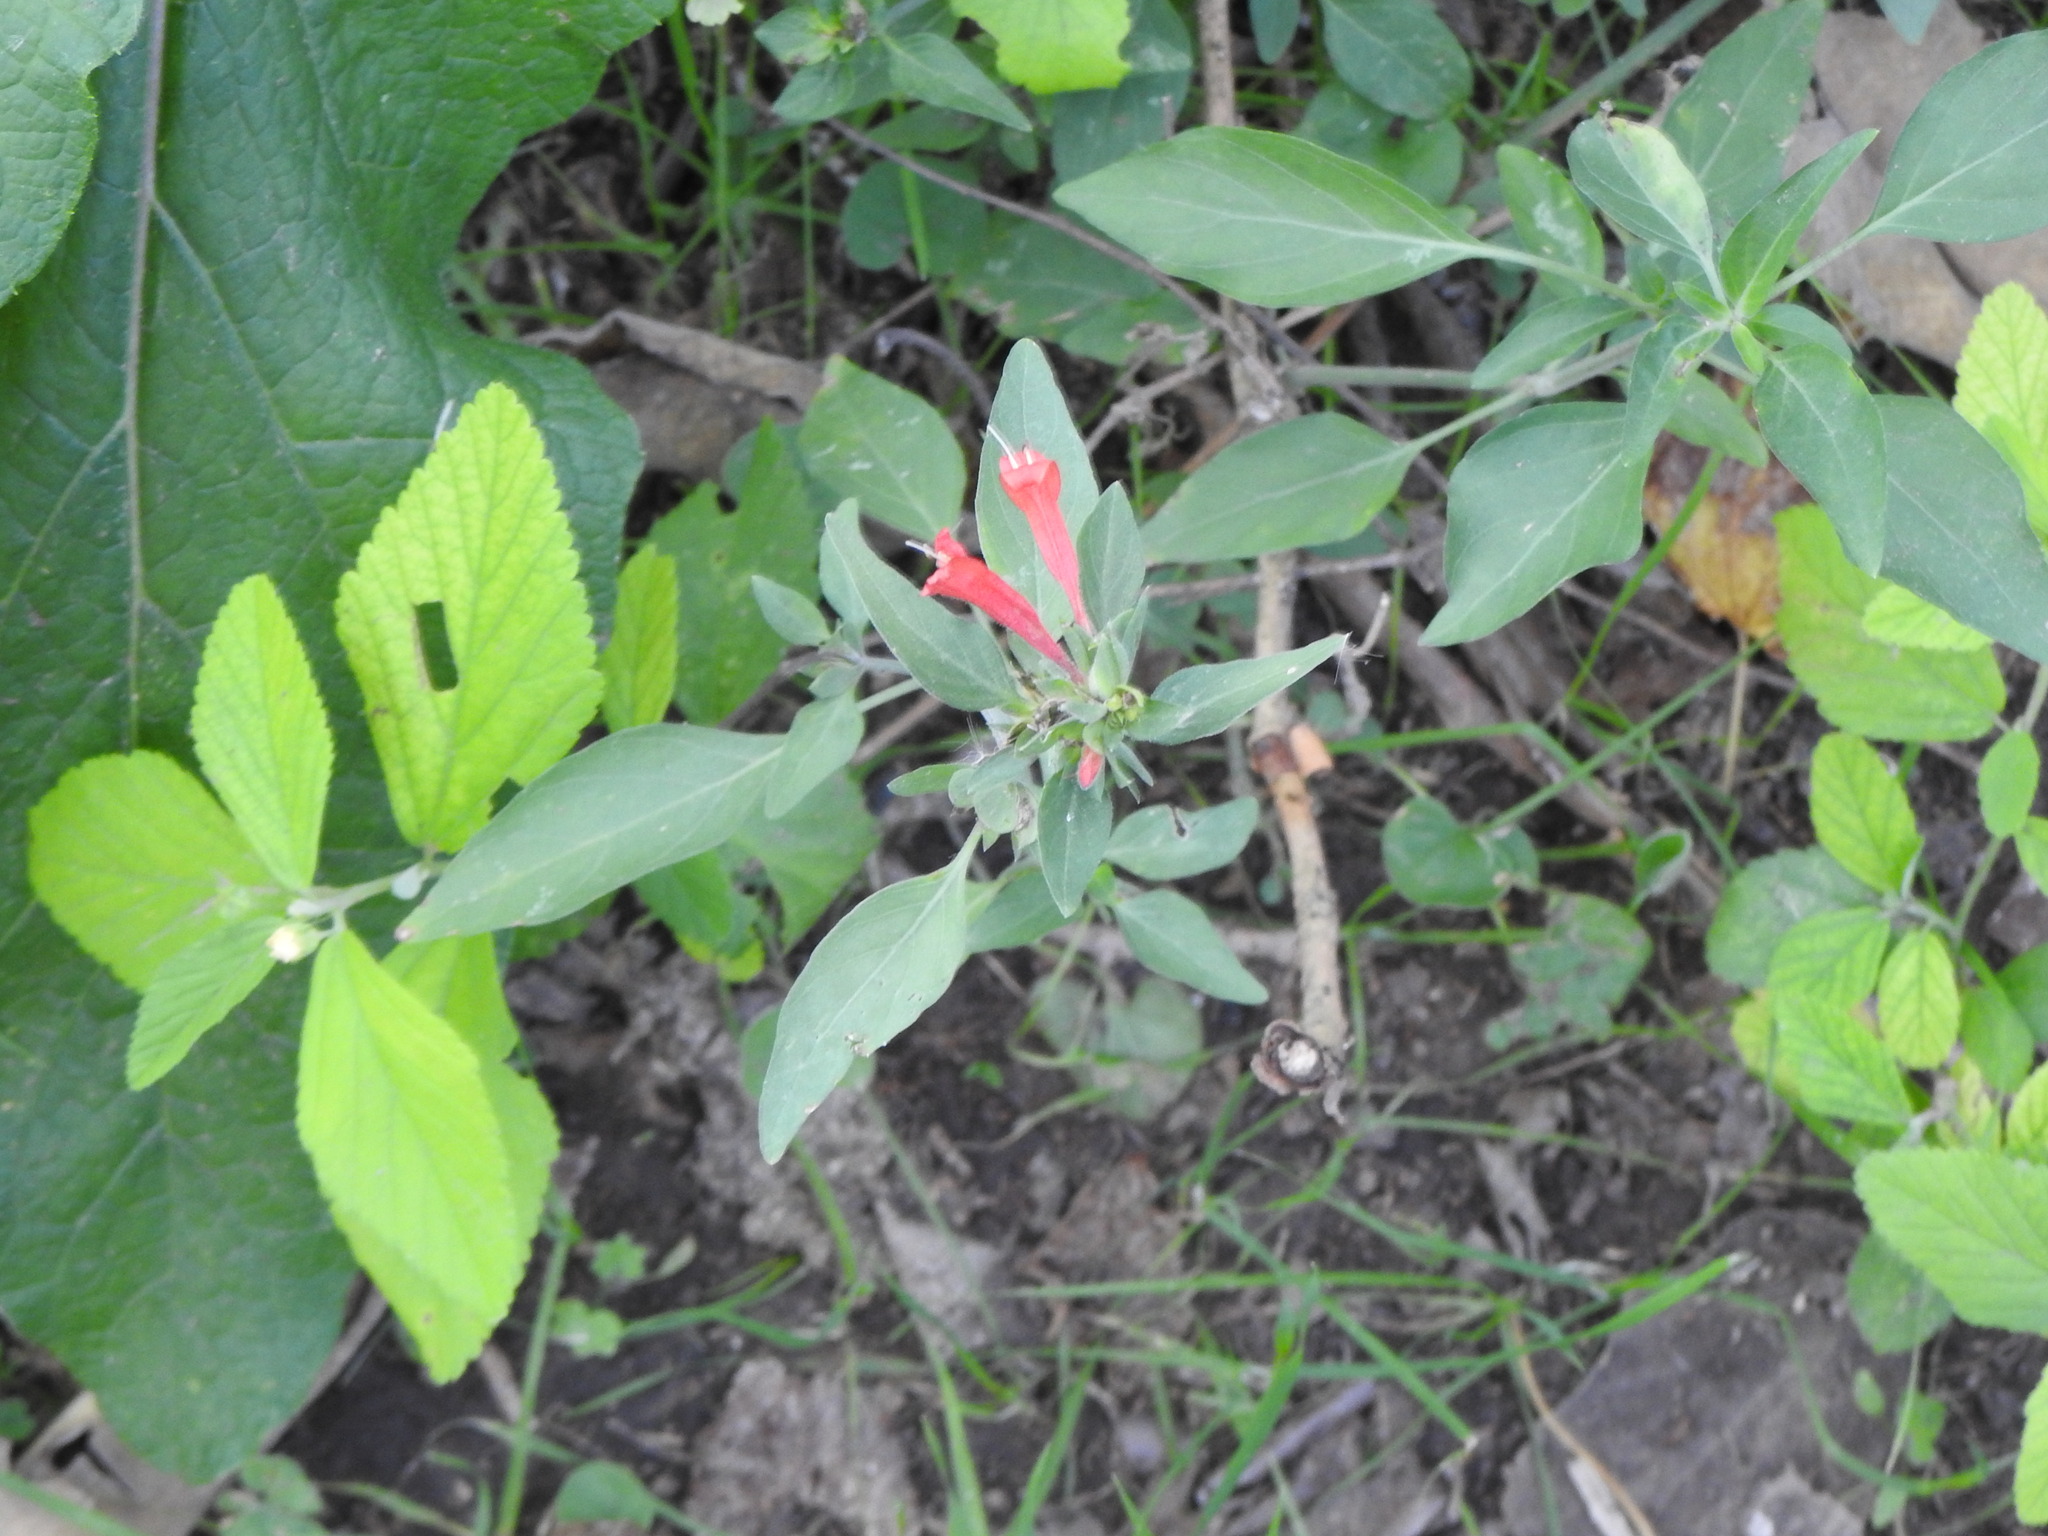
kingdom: Plantae
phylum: Tracheophyta
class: Magnoliopsida
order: Lamiales
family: Acanthaceae
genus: Dicliptera
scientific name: Dicliptera squarrosa
